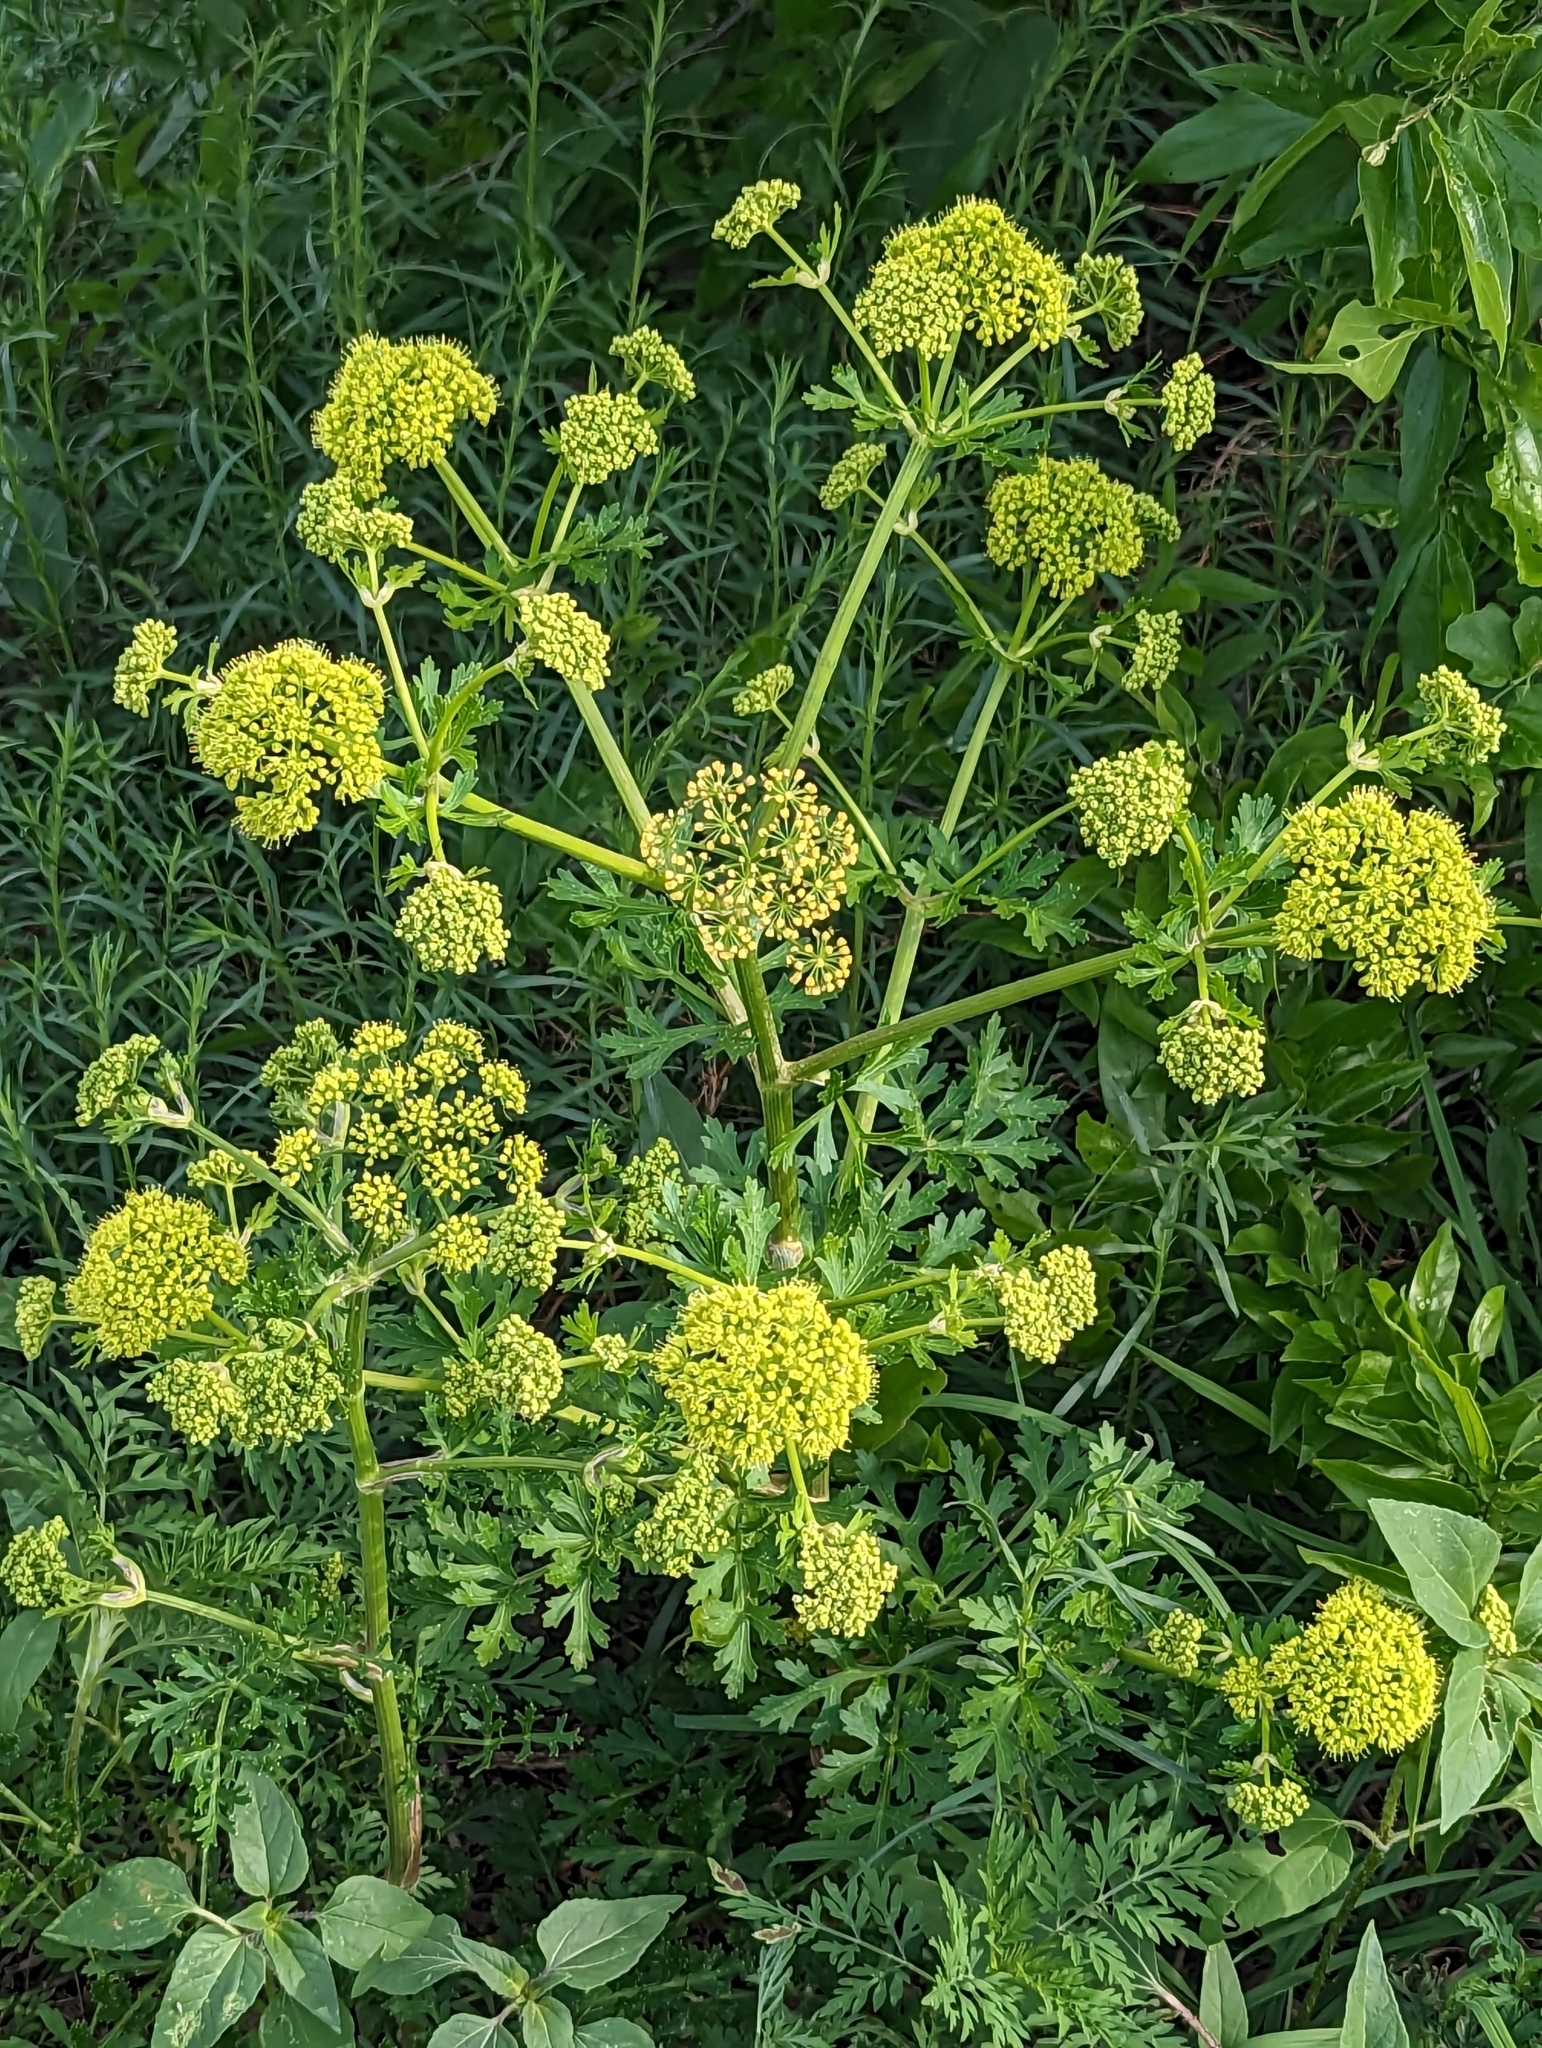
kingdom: Plantae
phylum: Tracheophyta
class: Magnoliopsida
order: Apiales
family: Apiaceae
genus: Polytaenia
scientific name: Polytaenia texana
